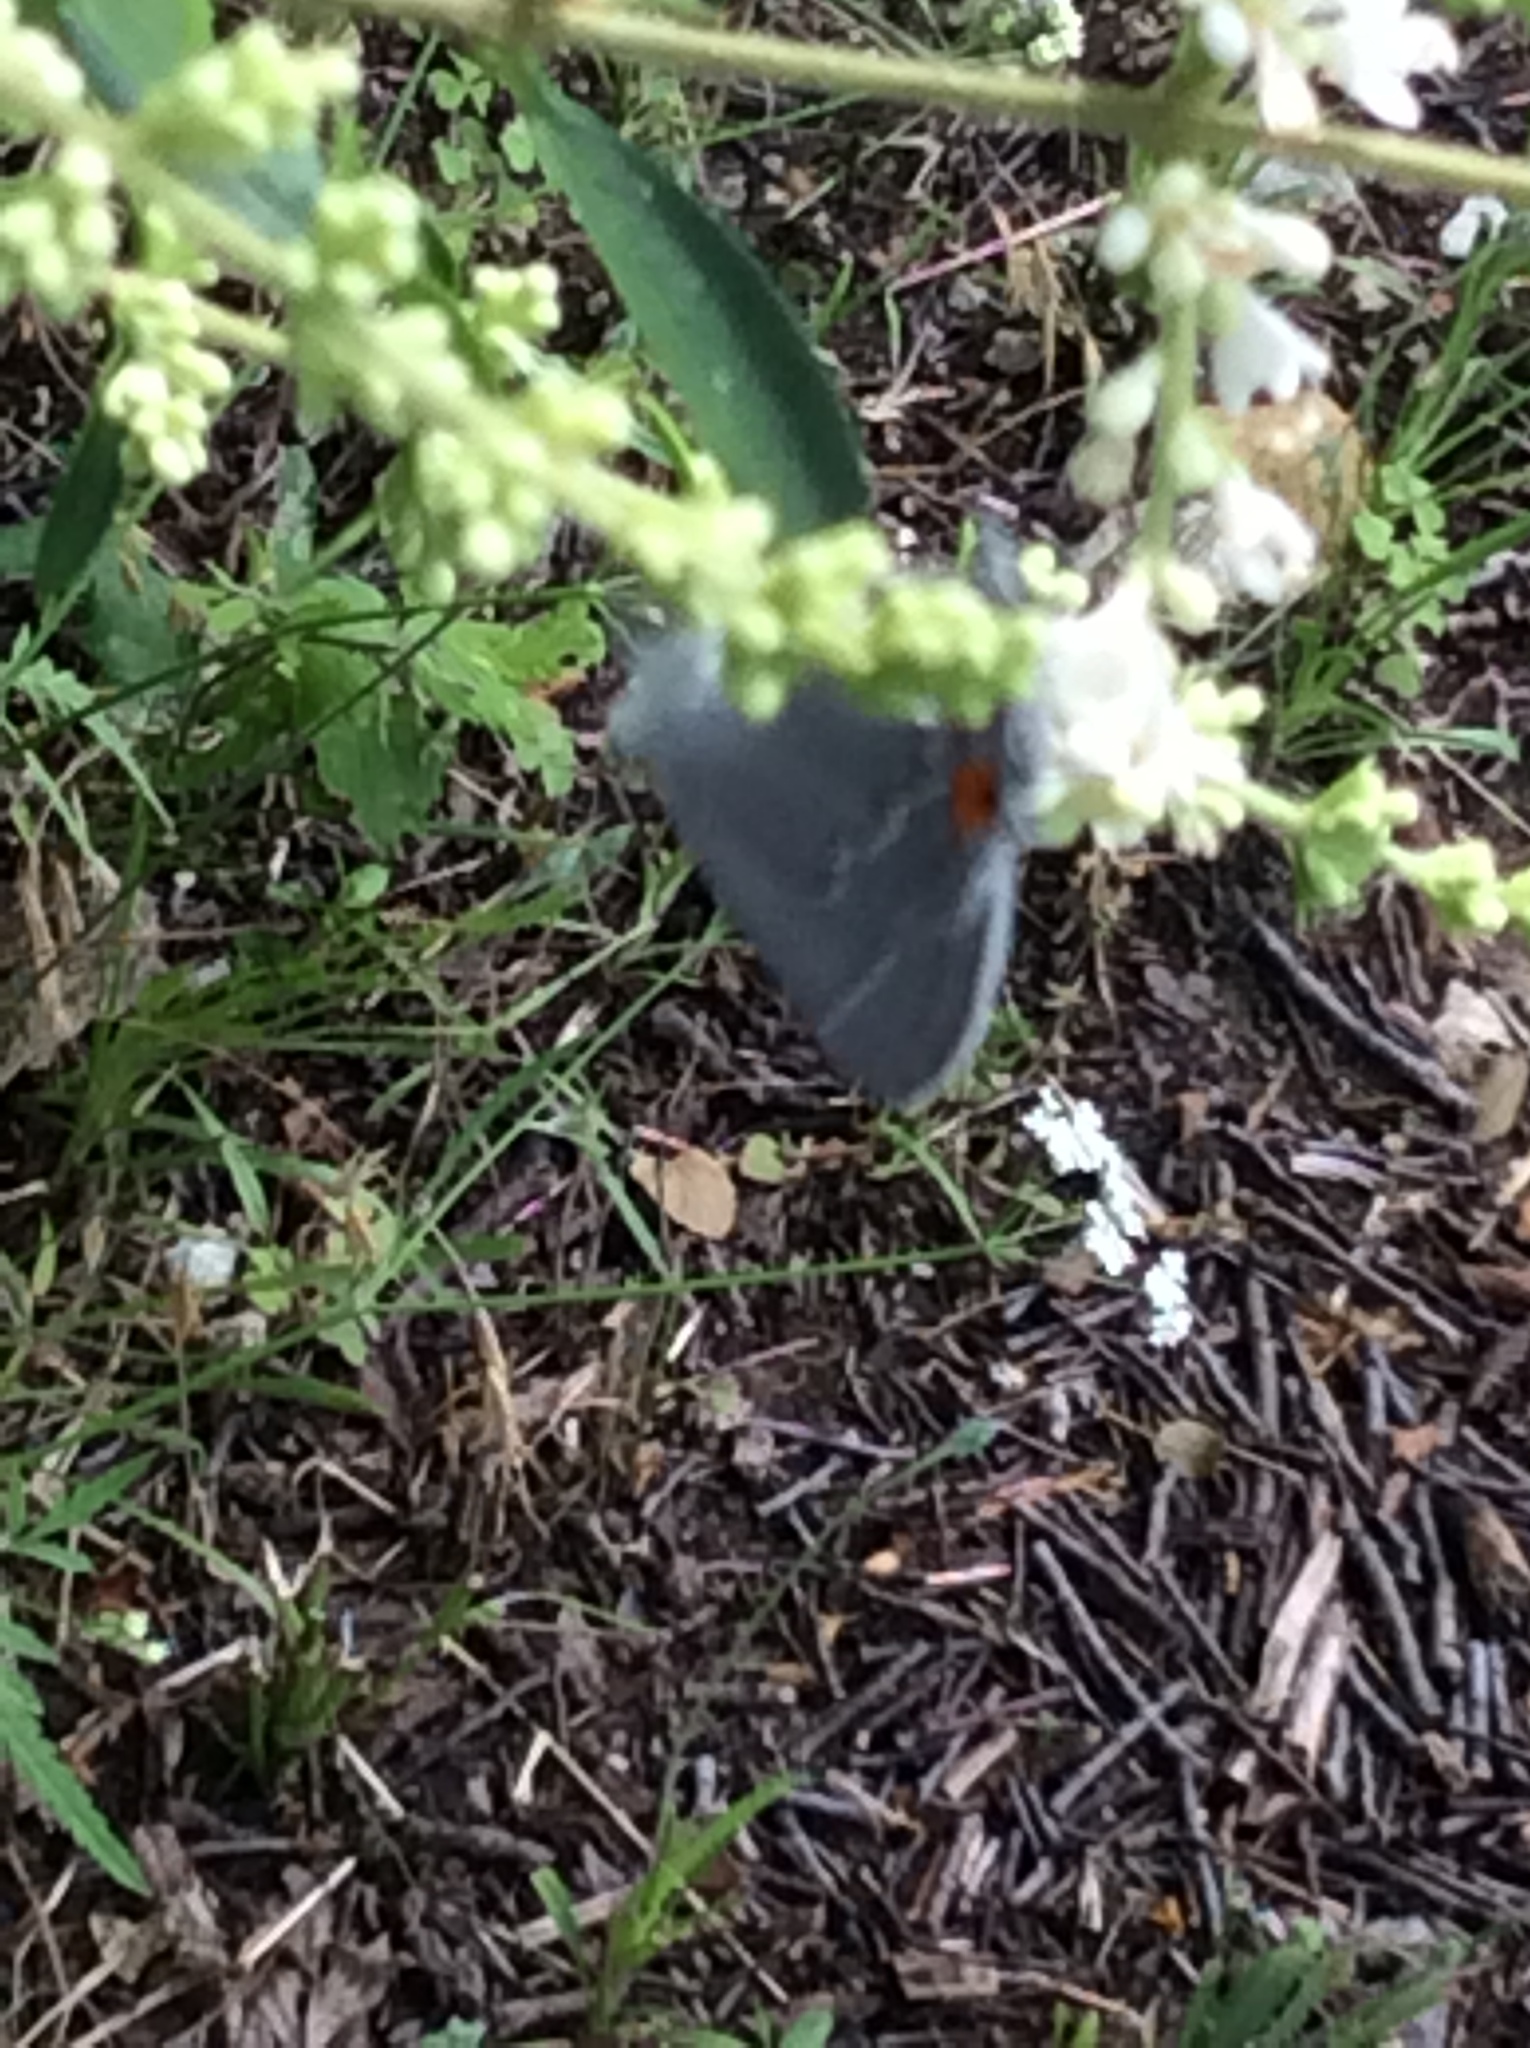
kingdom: Animalia
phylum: Arthropoda
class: Insecta
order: Lepidoptera
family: Lycaenidae
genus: Strymon
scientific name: Strymon melinus
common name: Gray hairstreak
